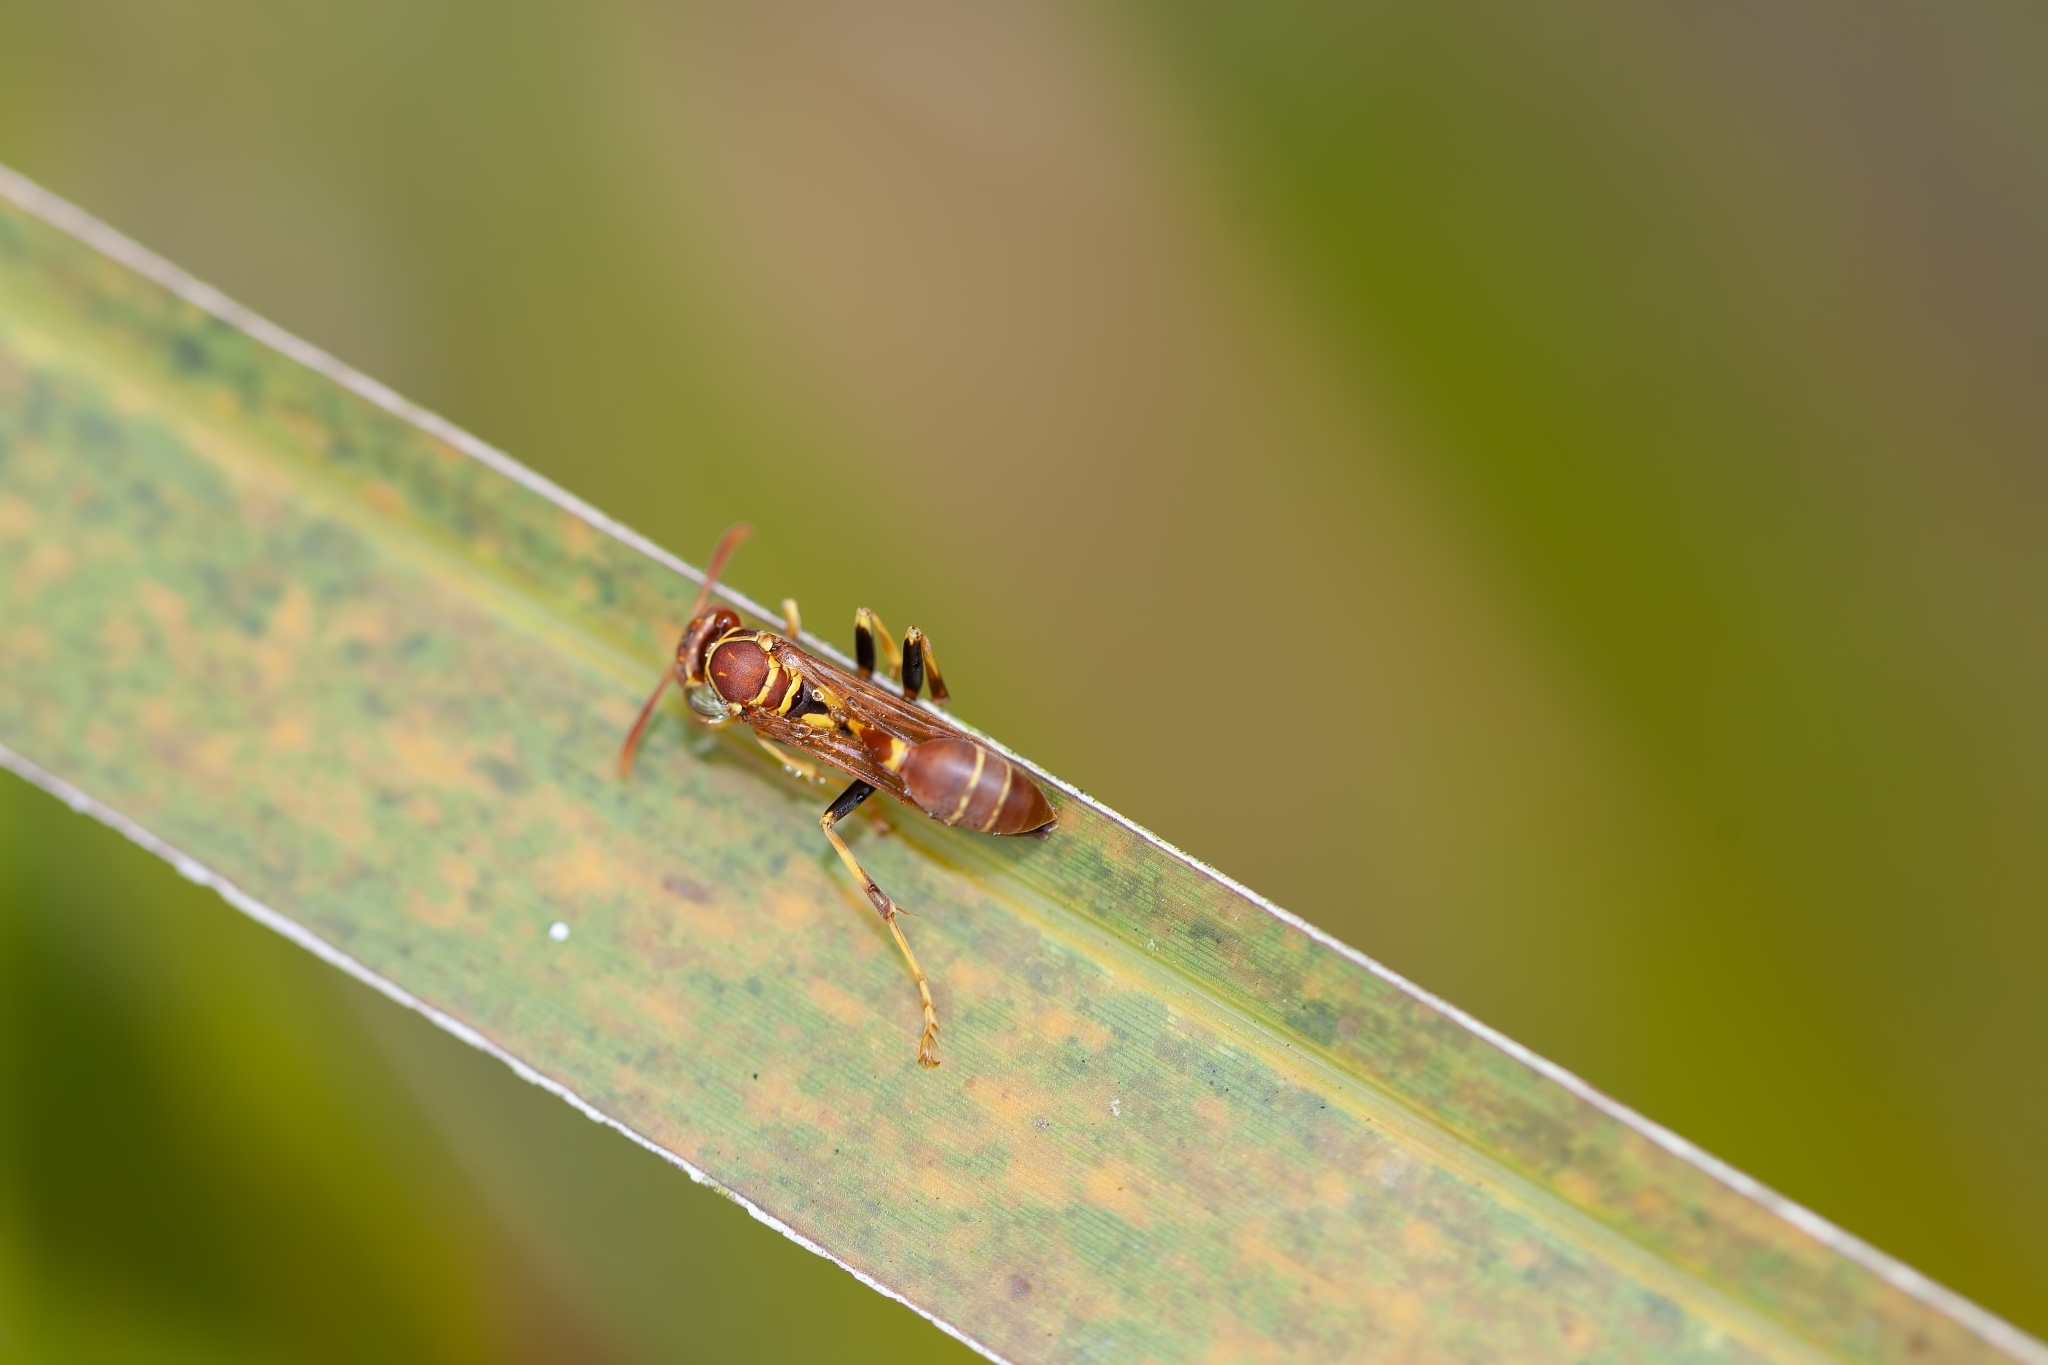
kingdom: Animalia
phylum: Arthropoda
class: Insecta
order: Hymenoptera
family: Vespidae
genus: Mischocyttarus
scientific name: Mischocyttarus mexicanus
